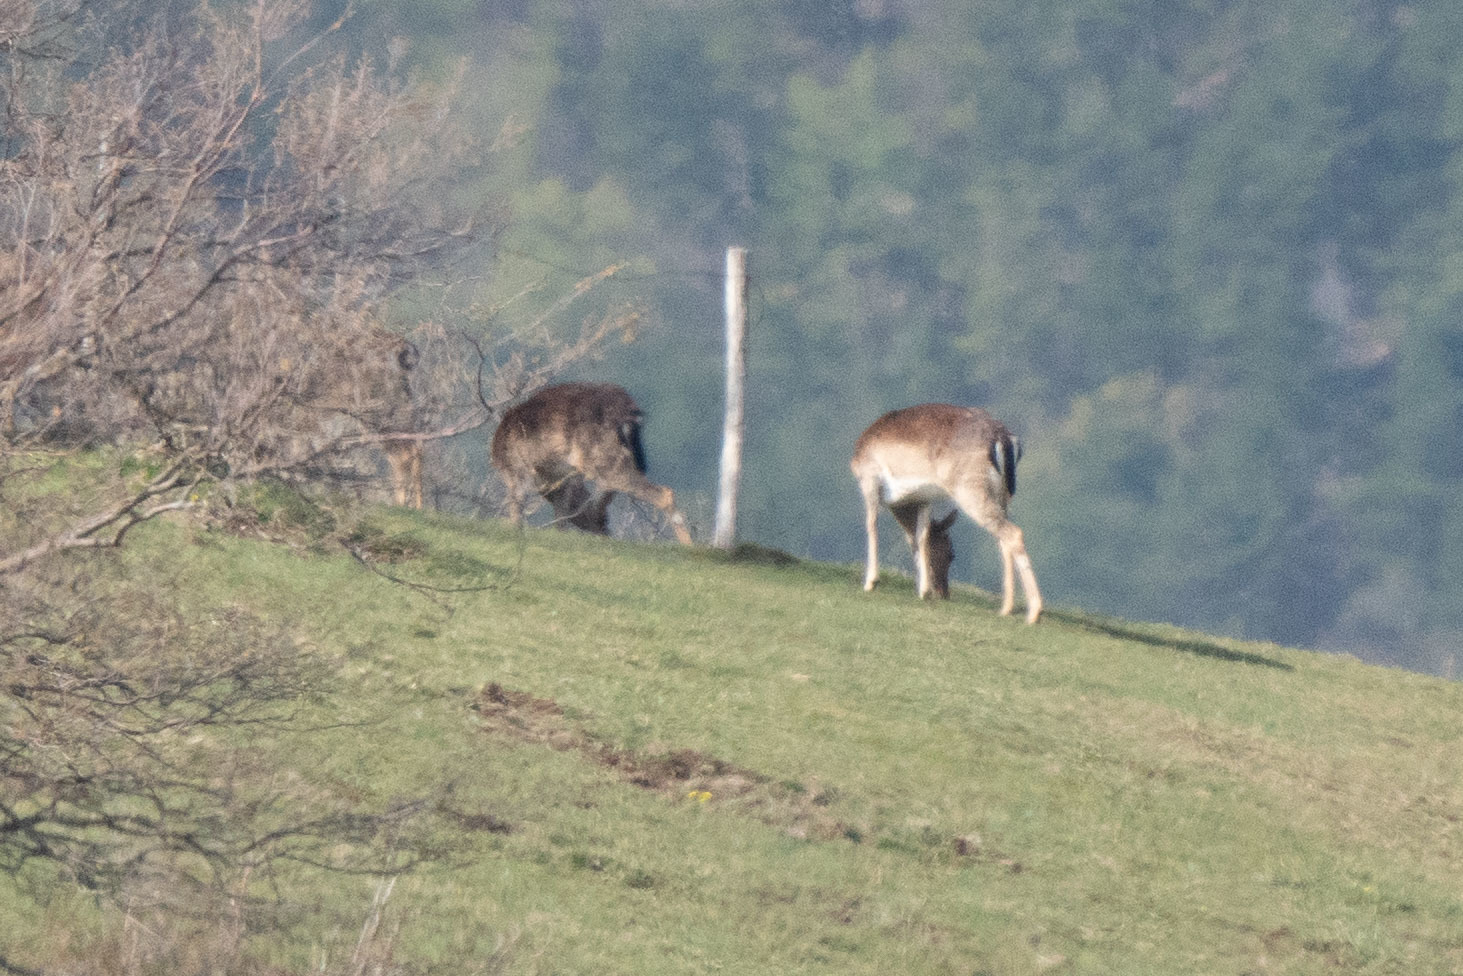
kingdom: Animalia
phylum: Chordata
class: Mammalia
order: Artiodactyla
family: Cervidae
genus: Dama
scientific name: Dama dama
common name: Fallow deer
